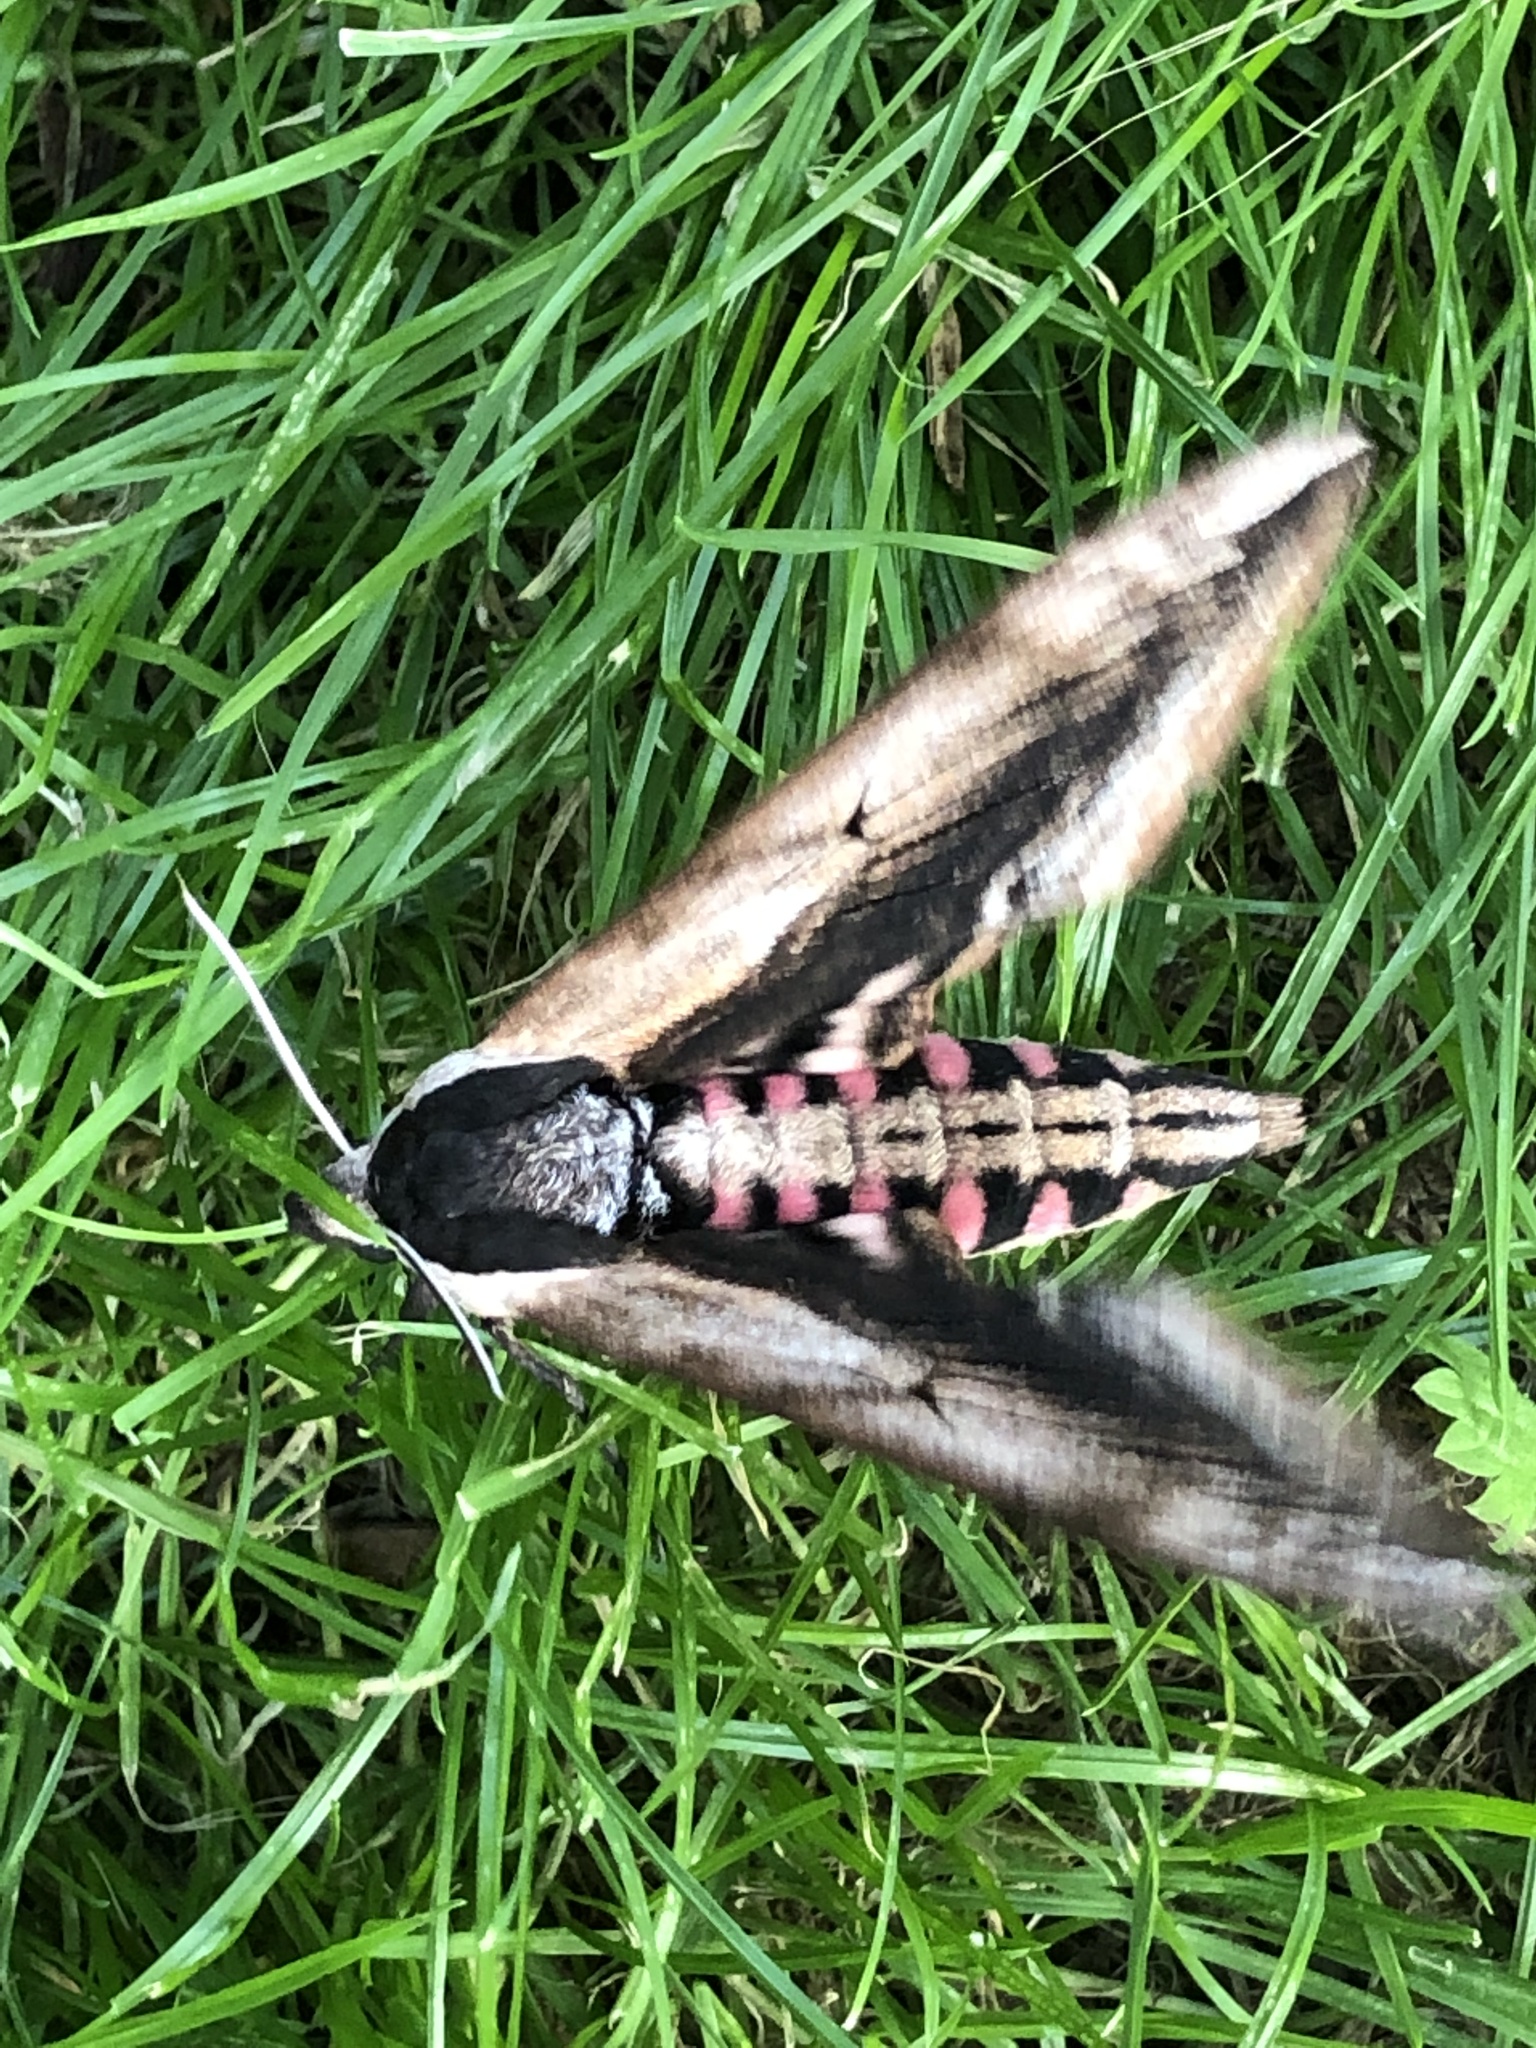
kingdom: Animalia
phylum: Arthropoda
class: Insecta
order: Lepidoptera
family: Sphingidae
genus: Sphinx
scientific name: Sphinx ligustri
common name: Privet hawk-moth
